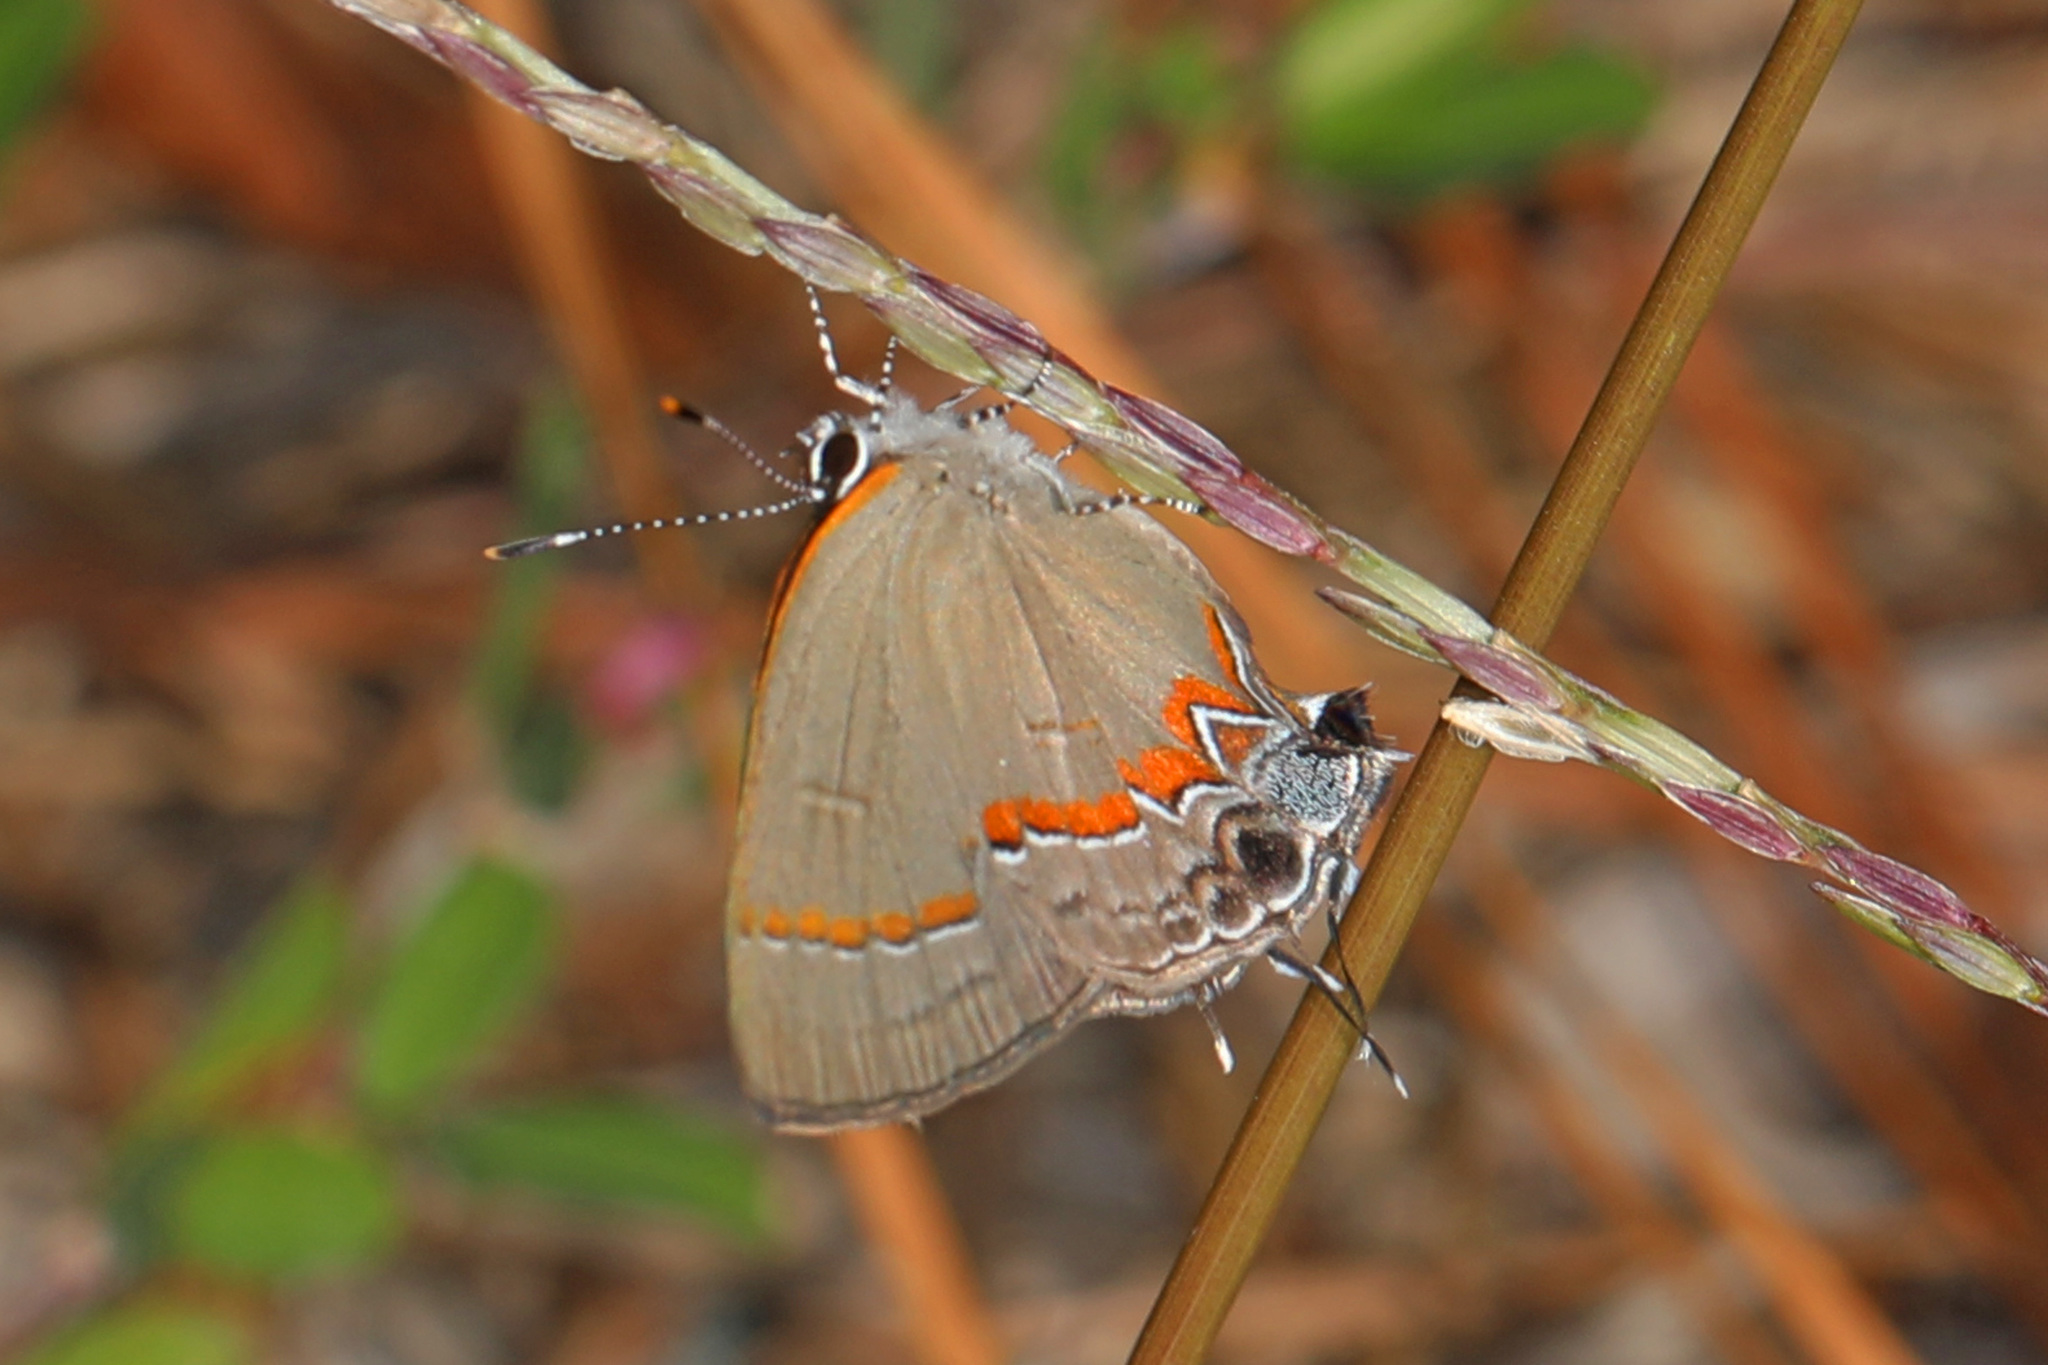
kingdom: Animalia
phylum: Arthropoda
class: Insecta
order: Lepidoptera
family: Lycaenidae
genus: Calycopis
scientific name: Calycopis cecrops
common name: Red-banded hairstreak
